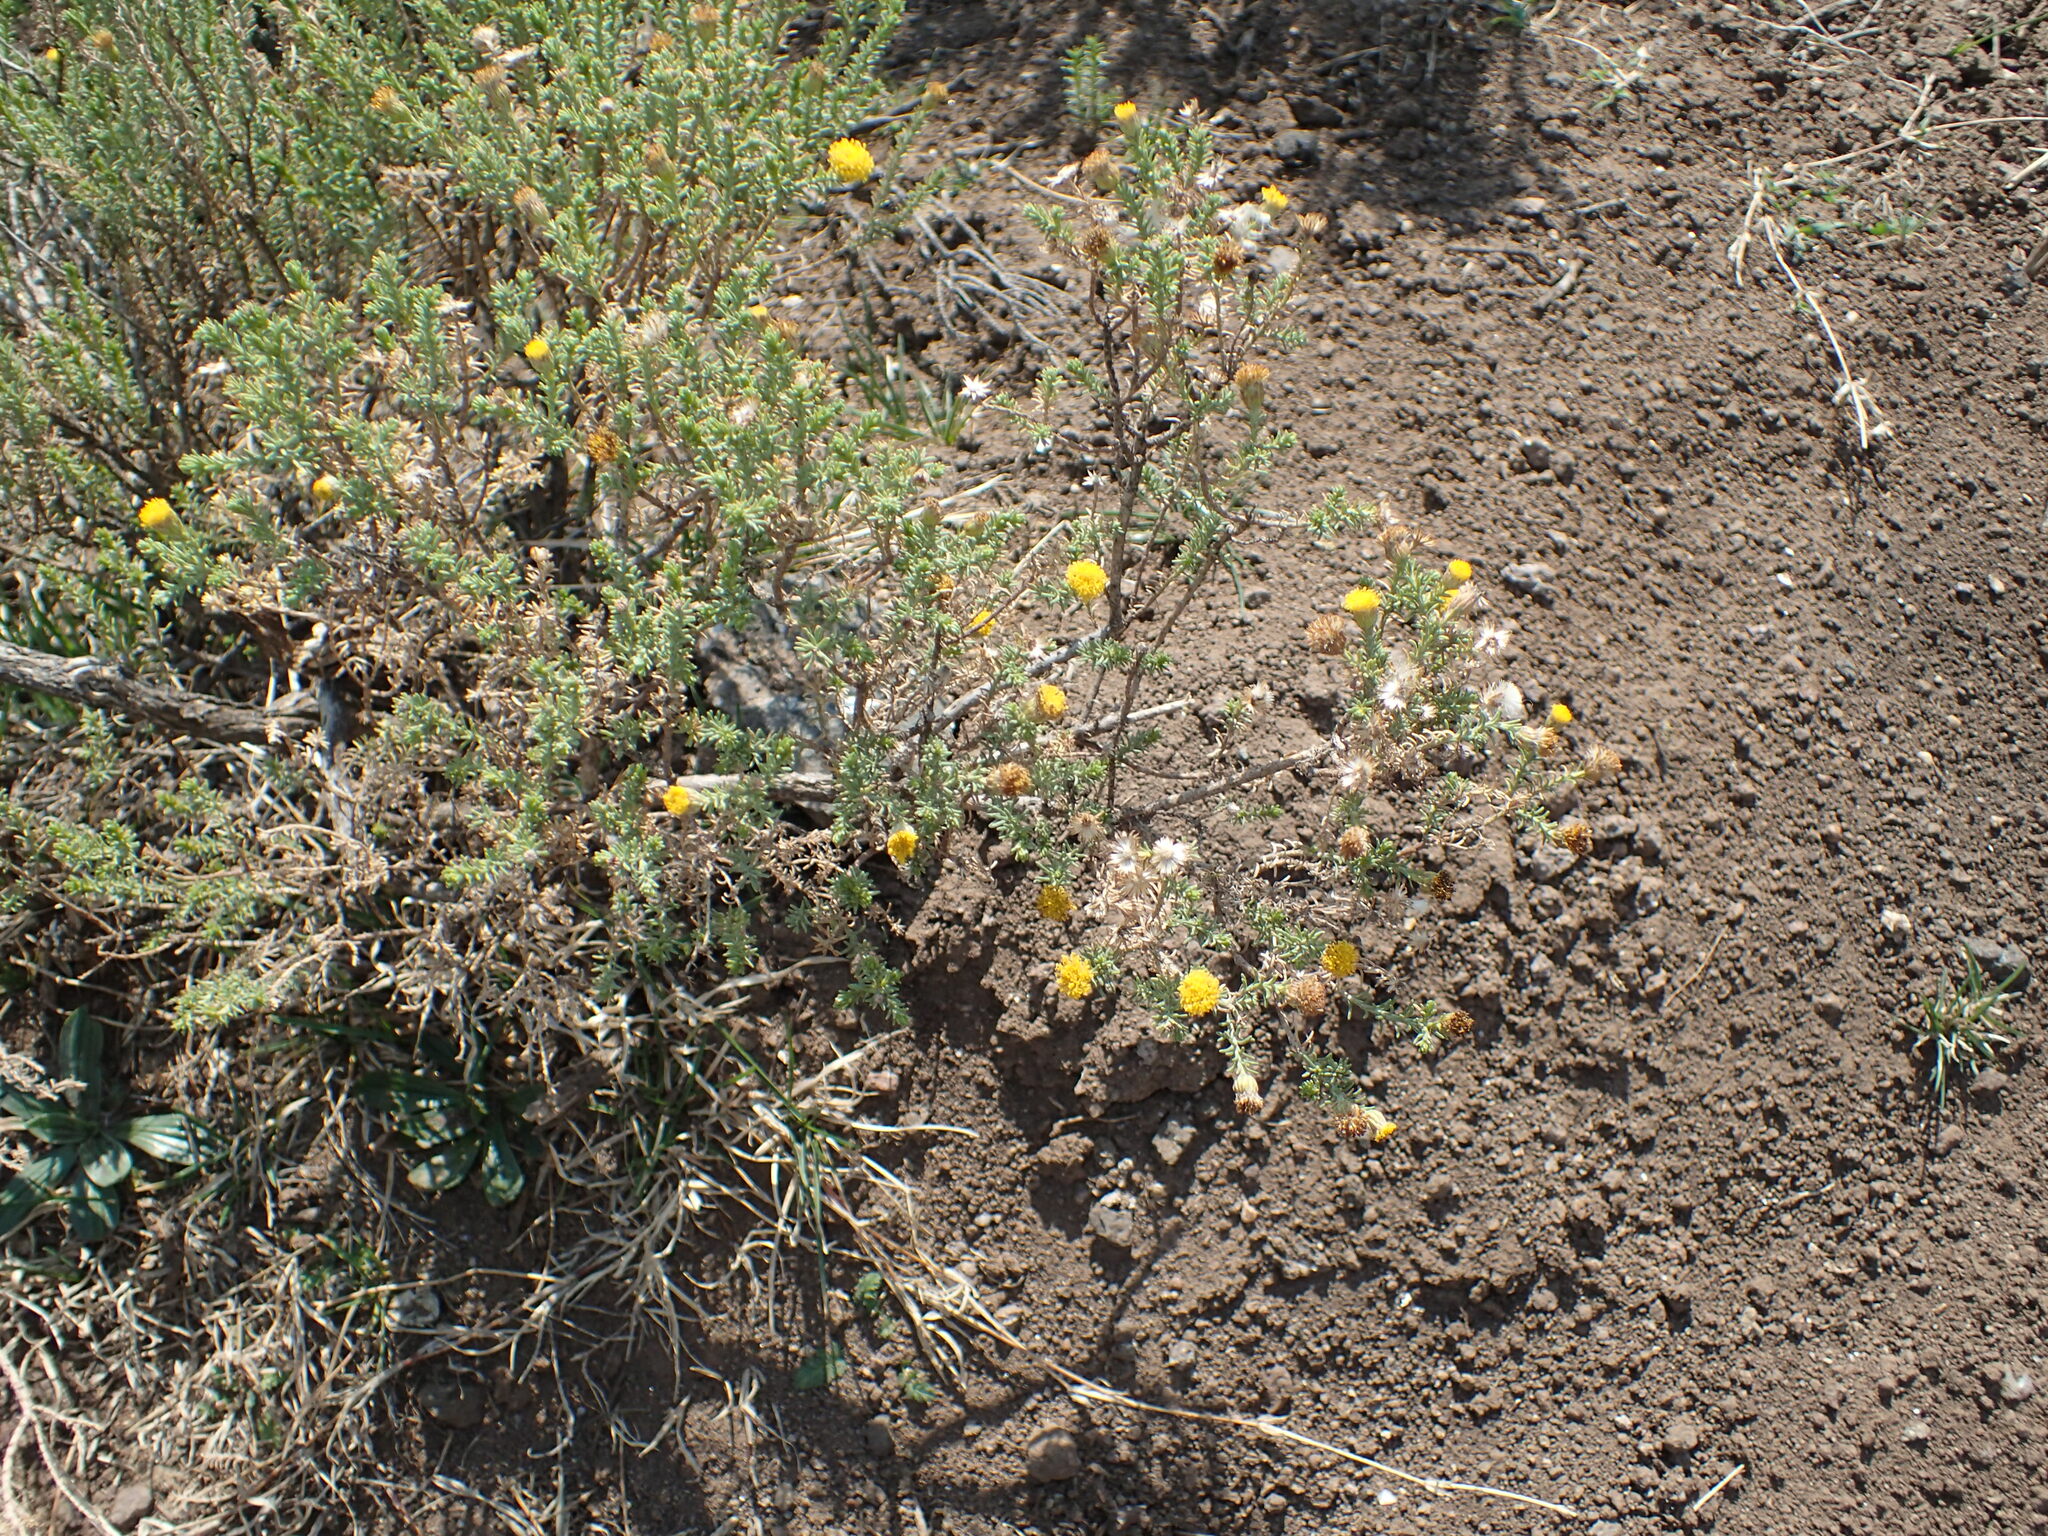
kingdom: Plantae
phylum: Tracheophyta
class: Magnoliopsida
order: Asterales
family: Asteraceae
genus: Chrysocoma
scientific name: Chrysocoma ciliata
